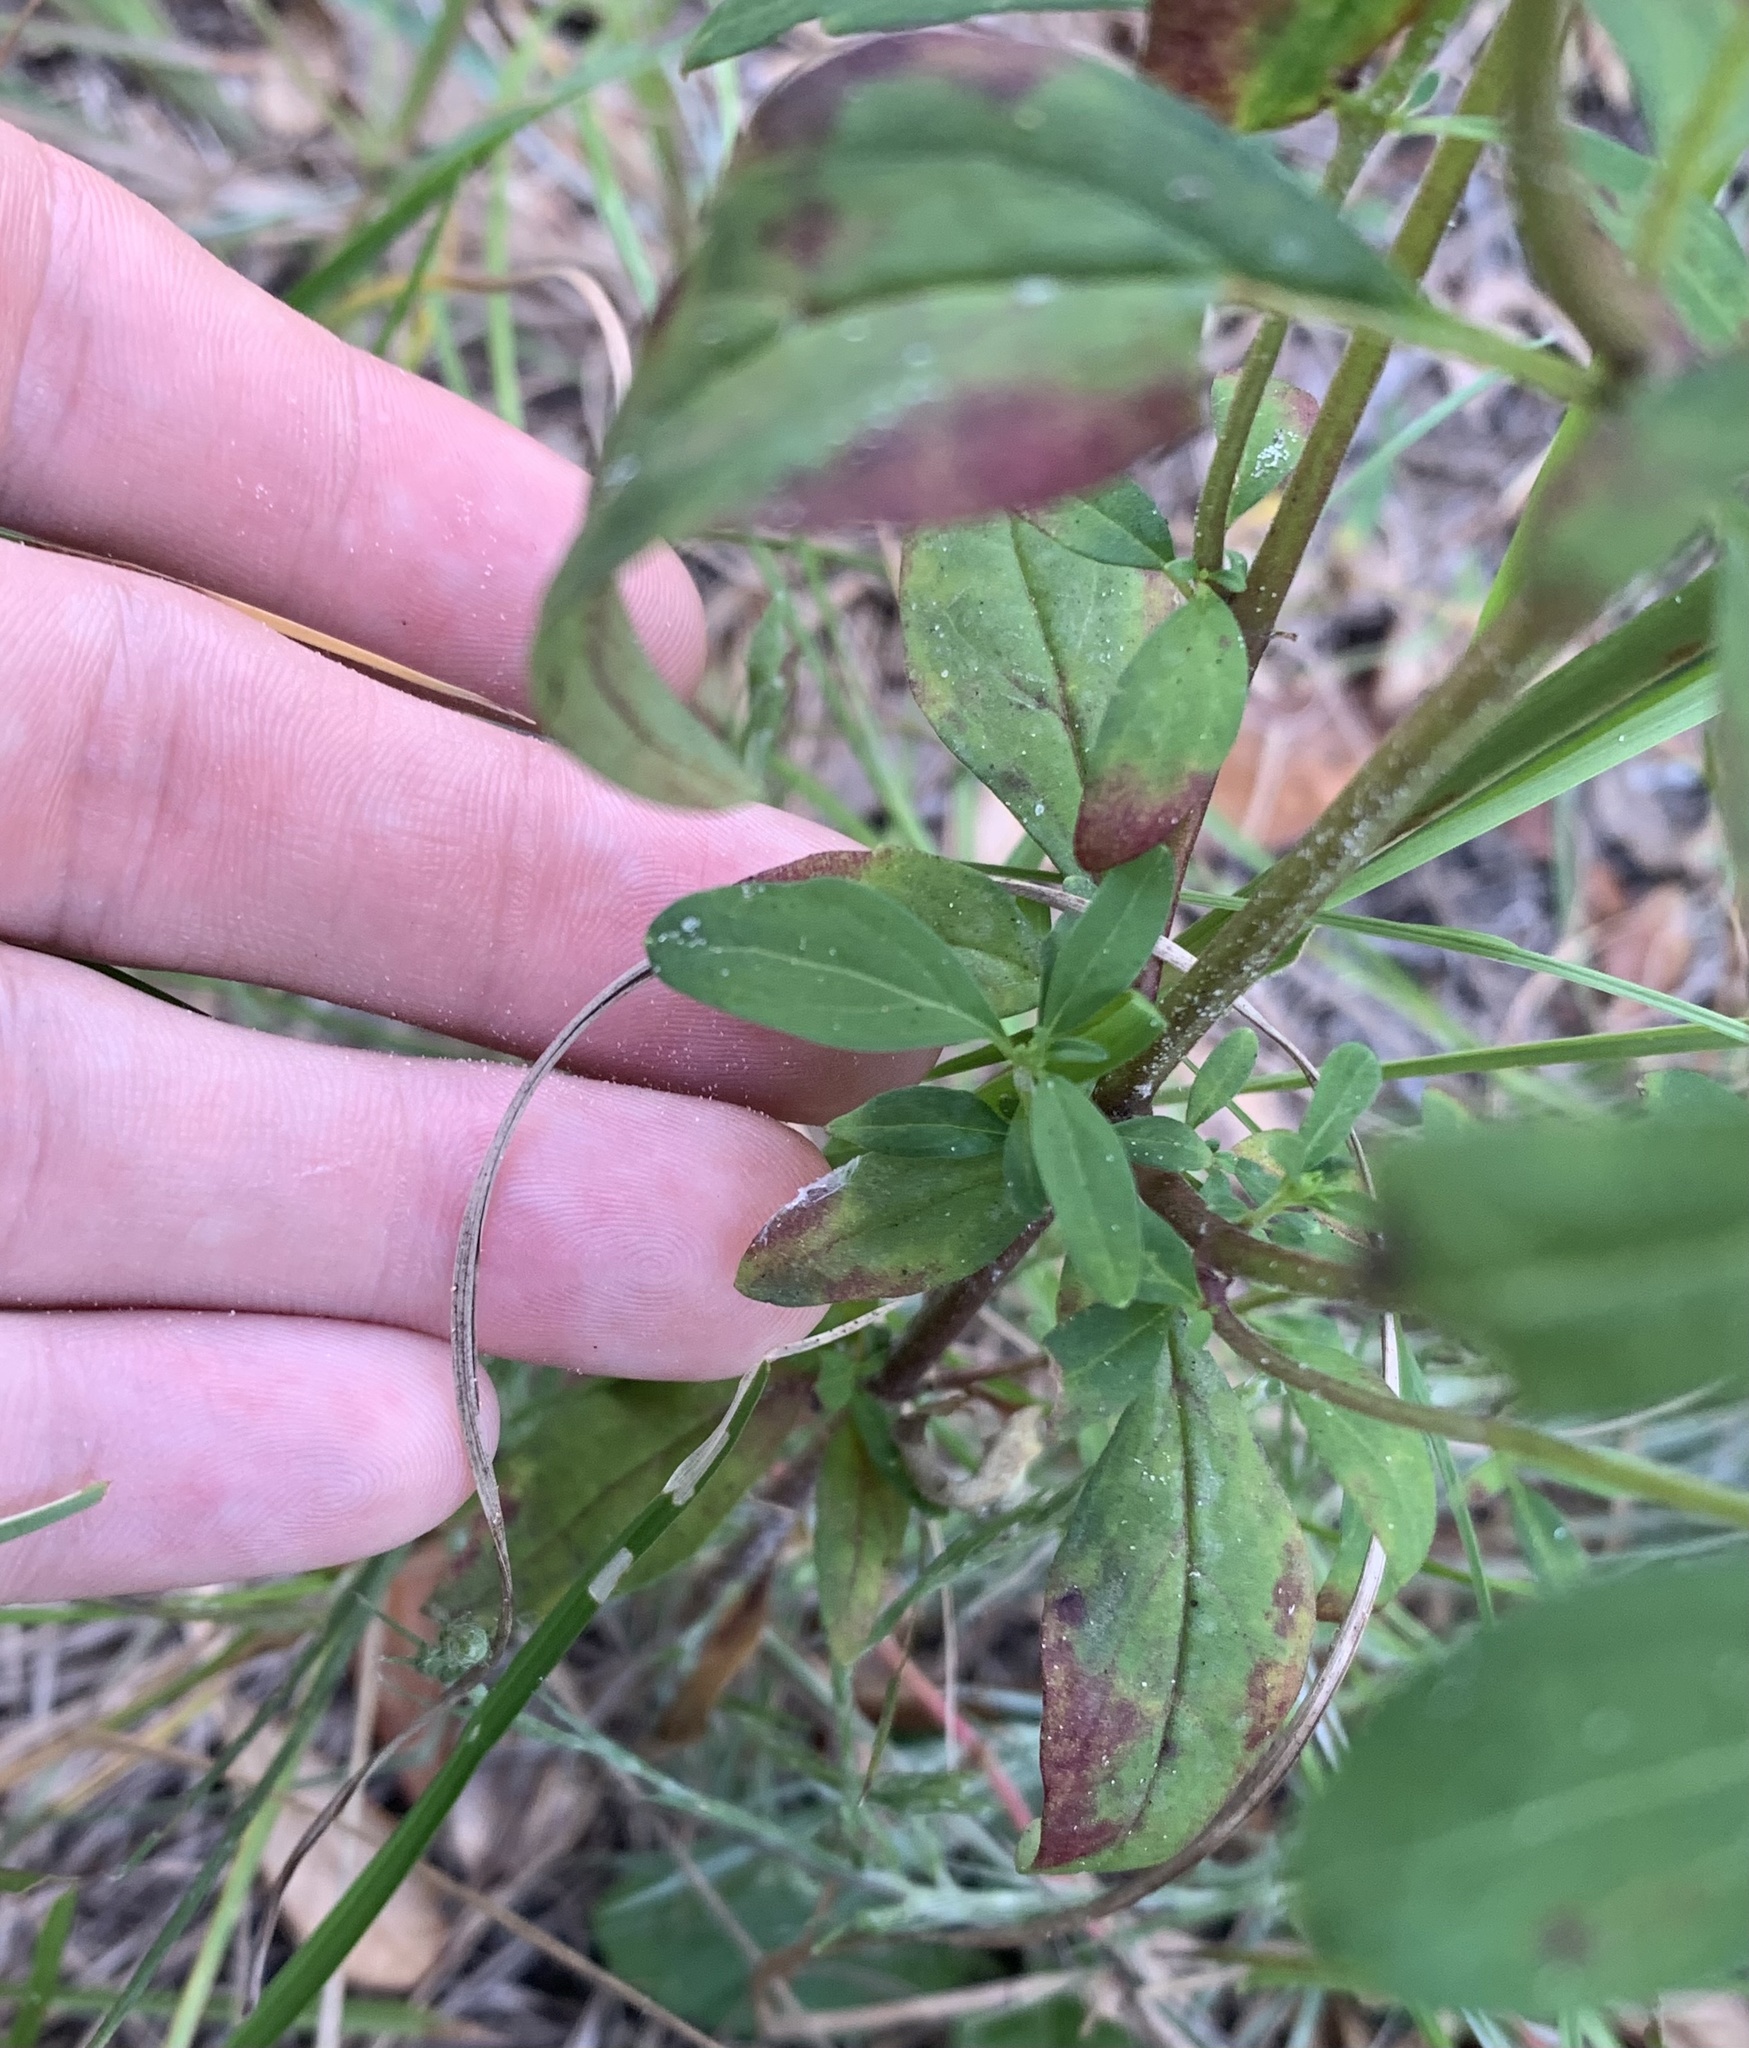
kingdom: Plantae
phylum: Tracheophyta
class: Magnoliopsida
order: Lamiales
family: Lamiaceae
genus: Trichostema
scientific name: Trichostema fruticosum
